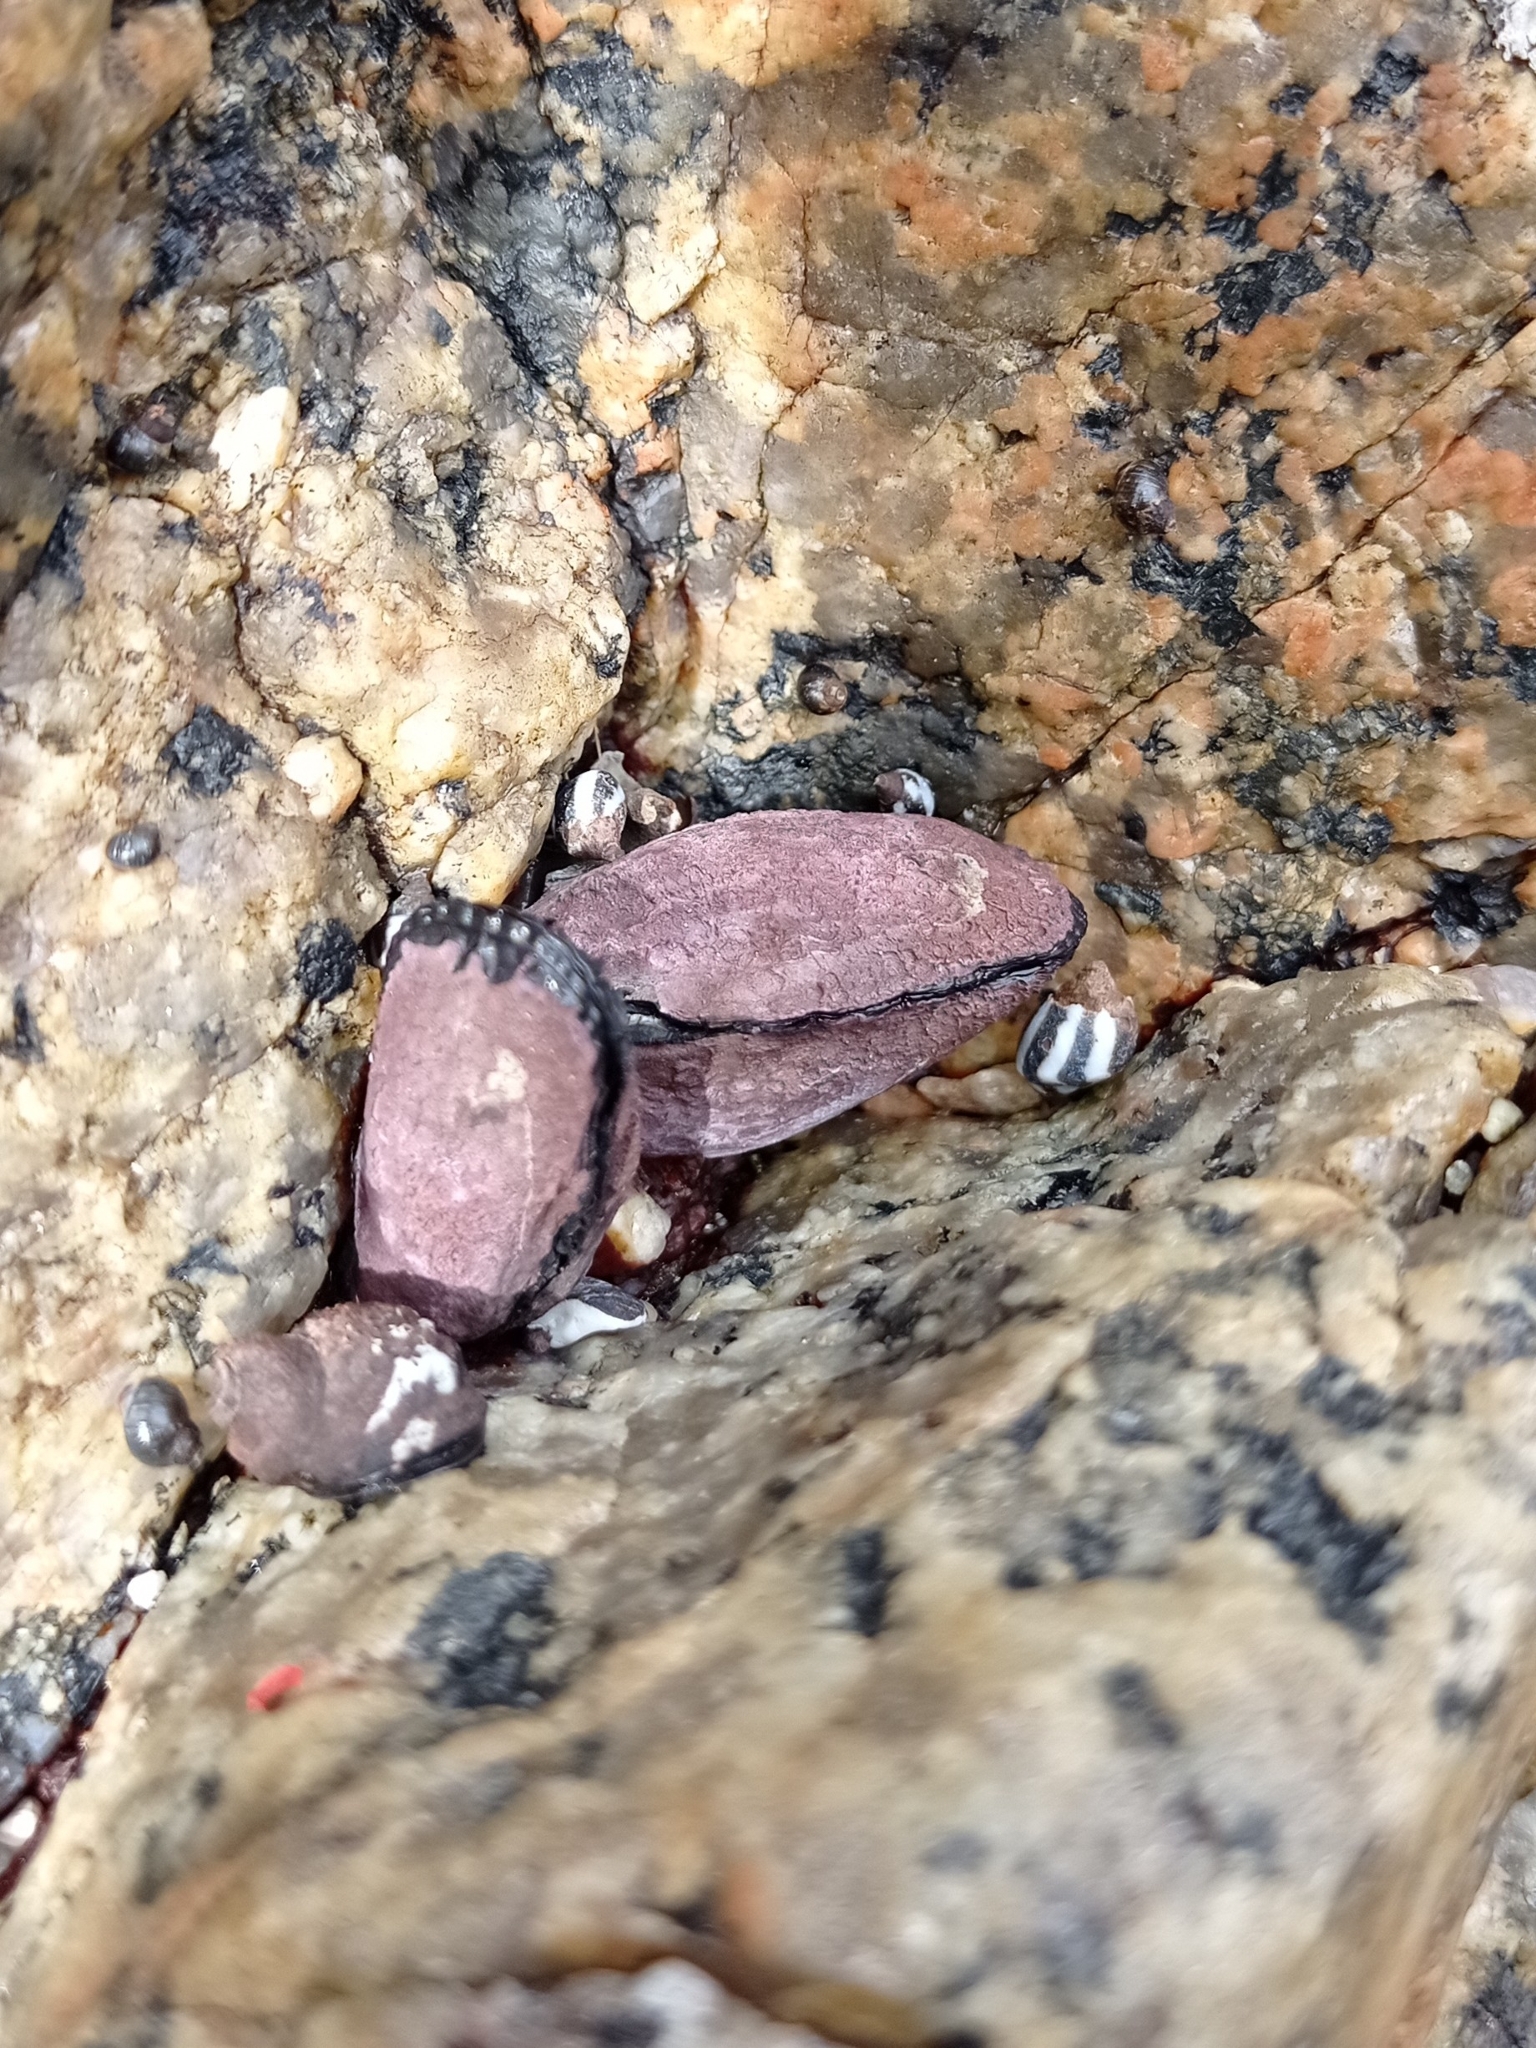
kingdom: Animalia
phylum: Mollusca
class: Bivalvia
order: Mytilida
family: Mytilidae
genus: Perumytilus
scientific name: Perumytilus purpuratus
